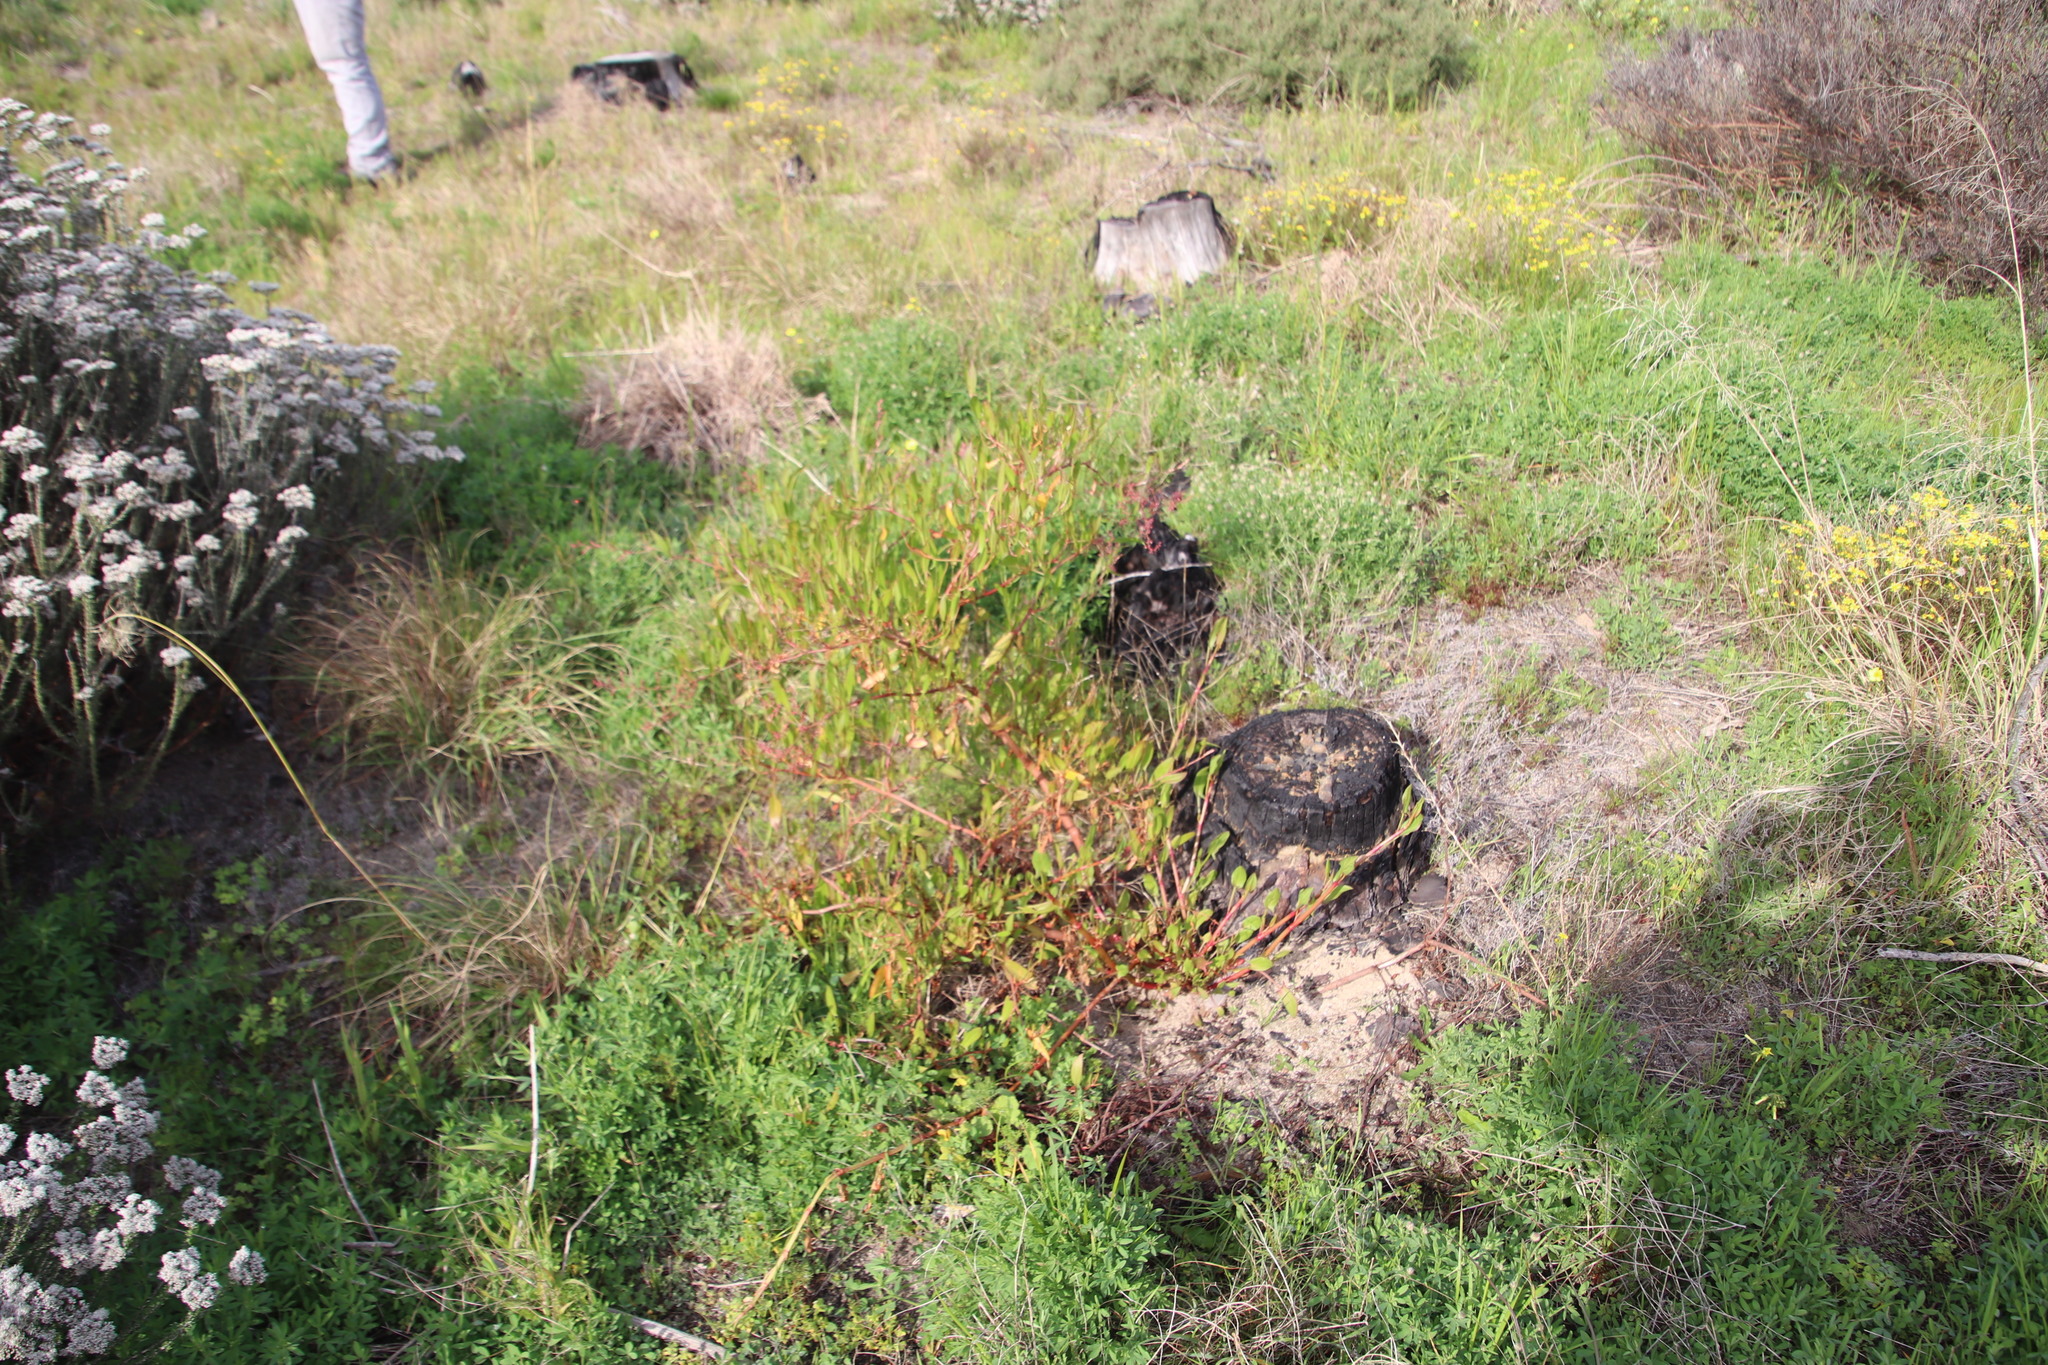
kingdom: Plantae
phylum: Tracheophyta
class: Magnoliopsida
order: Caryophyllales
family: Polygonaceae
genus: Rumex
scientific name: Rumex usambarensis
